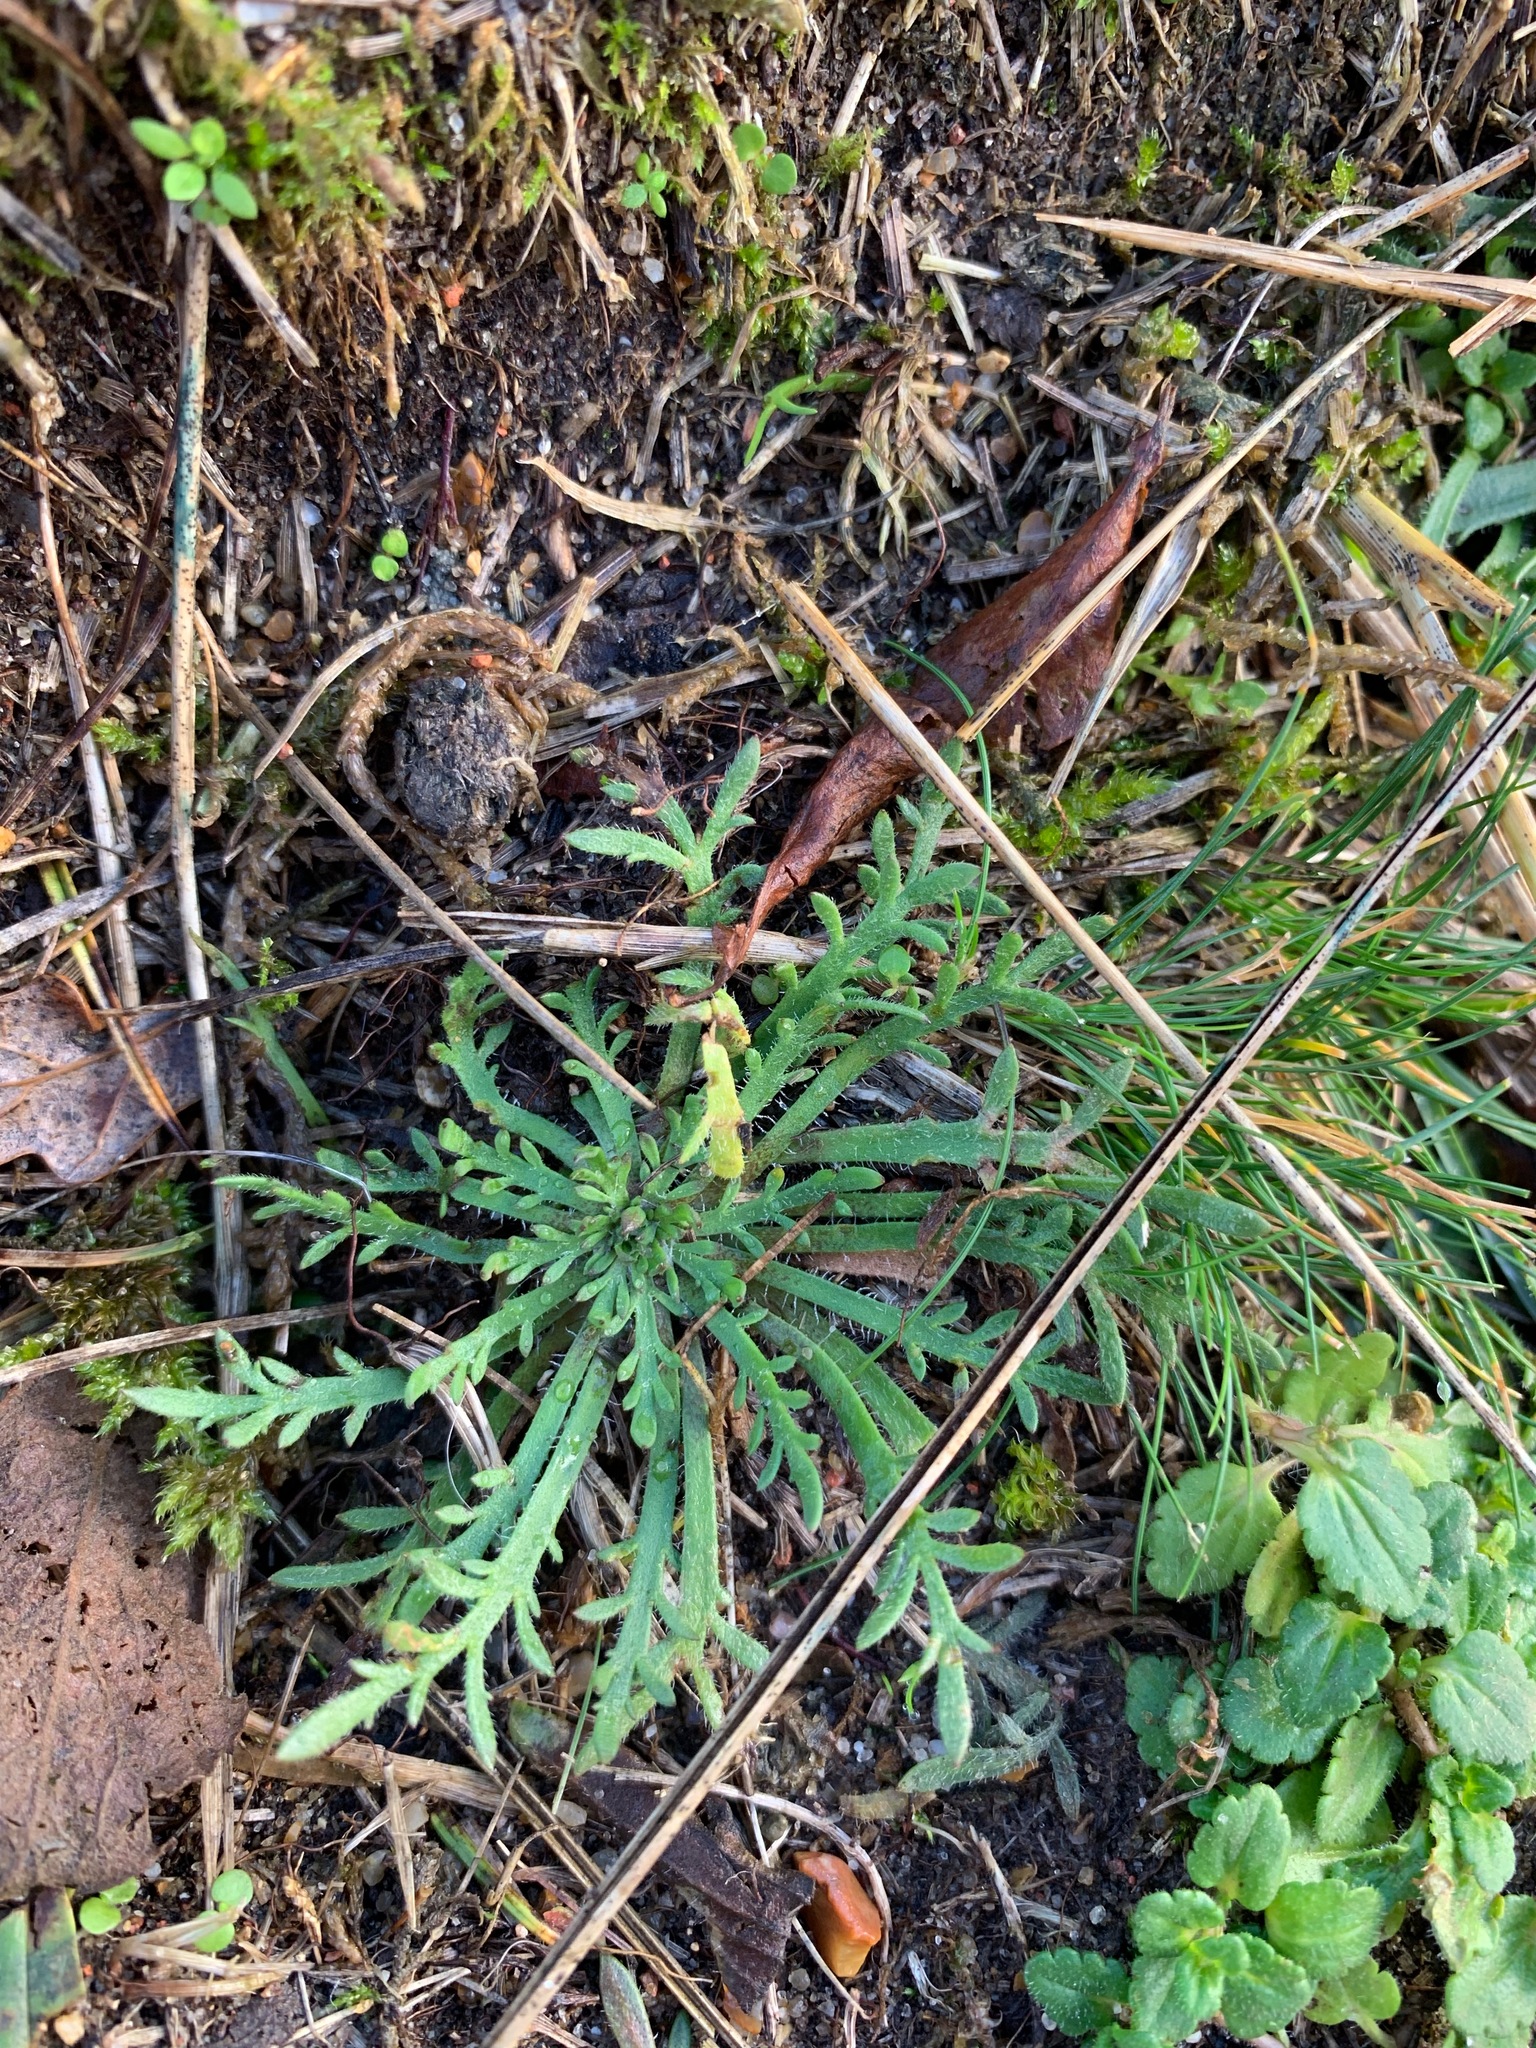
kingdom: Plantae
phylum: Tracheophyta
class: Magnoliopsida
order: Lamiales
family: Plantaginaceae
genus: Plantago
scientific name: Plantago coronopus
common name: Buck's-horn plantain
